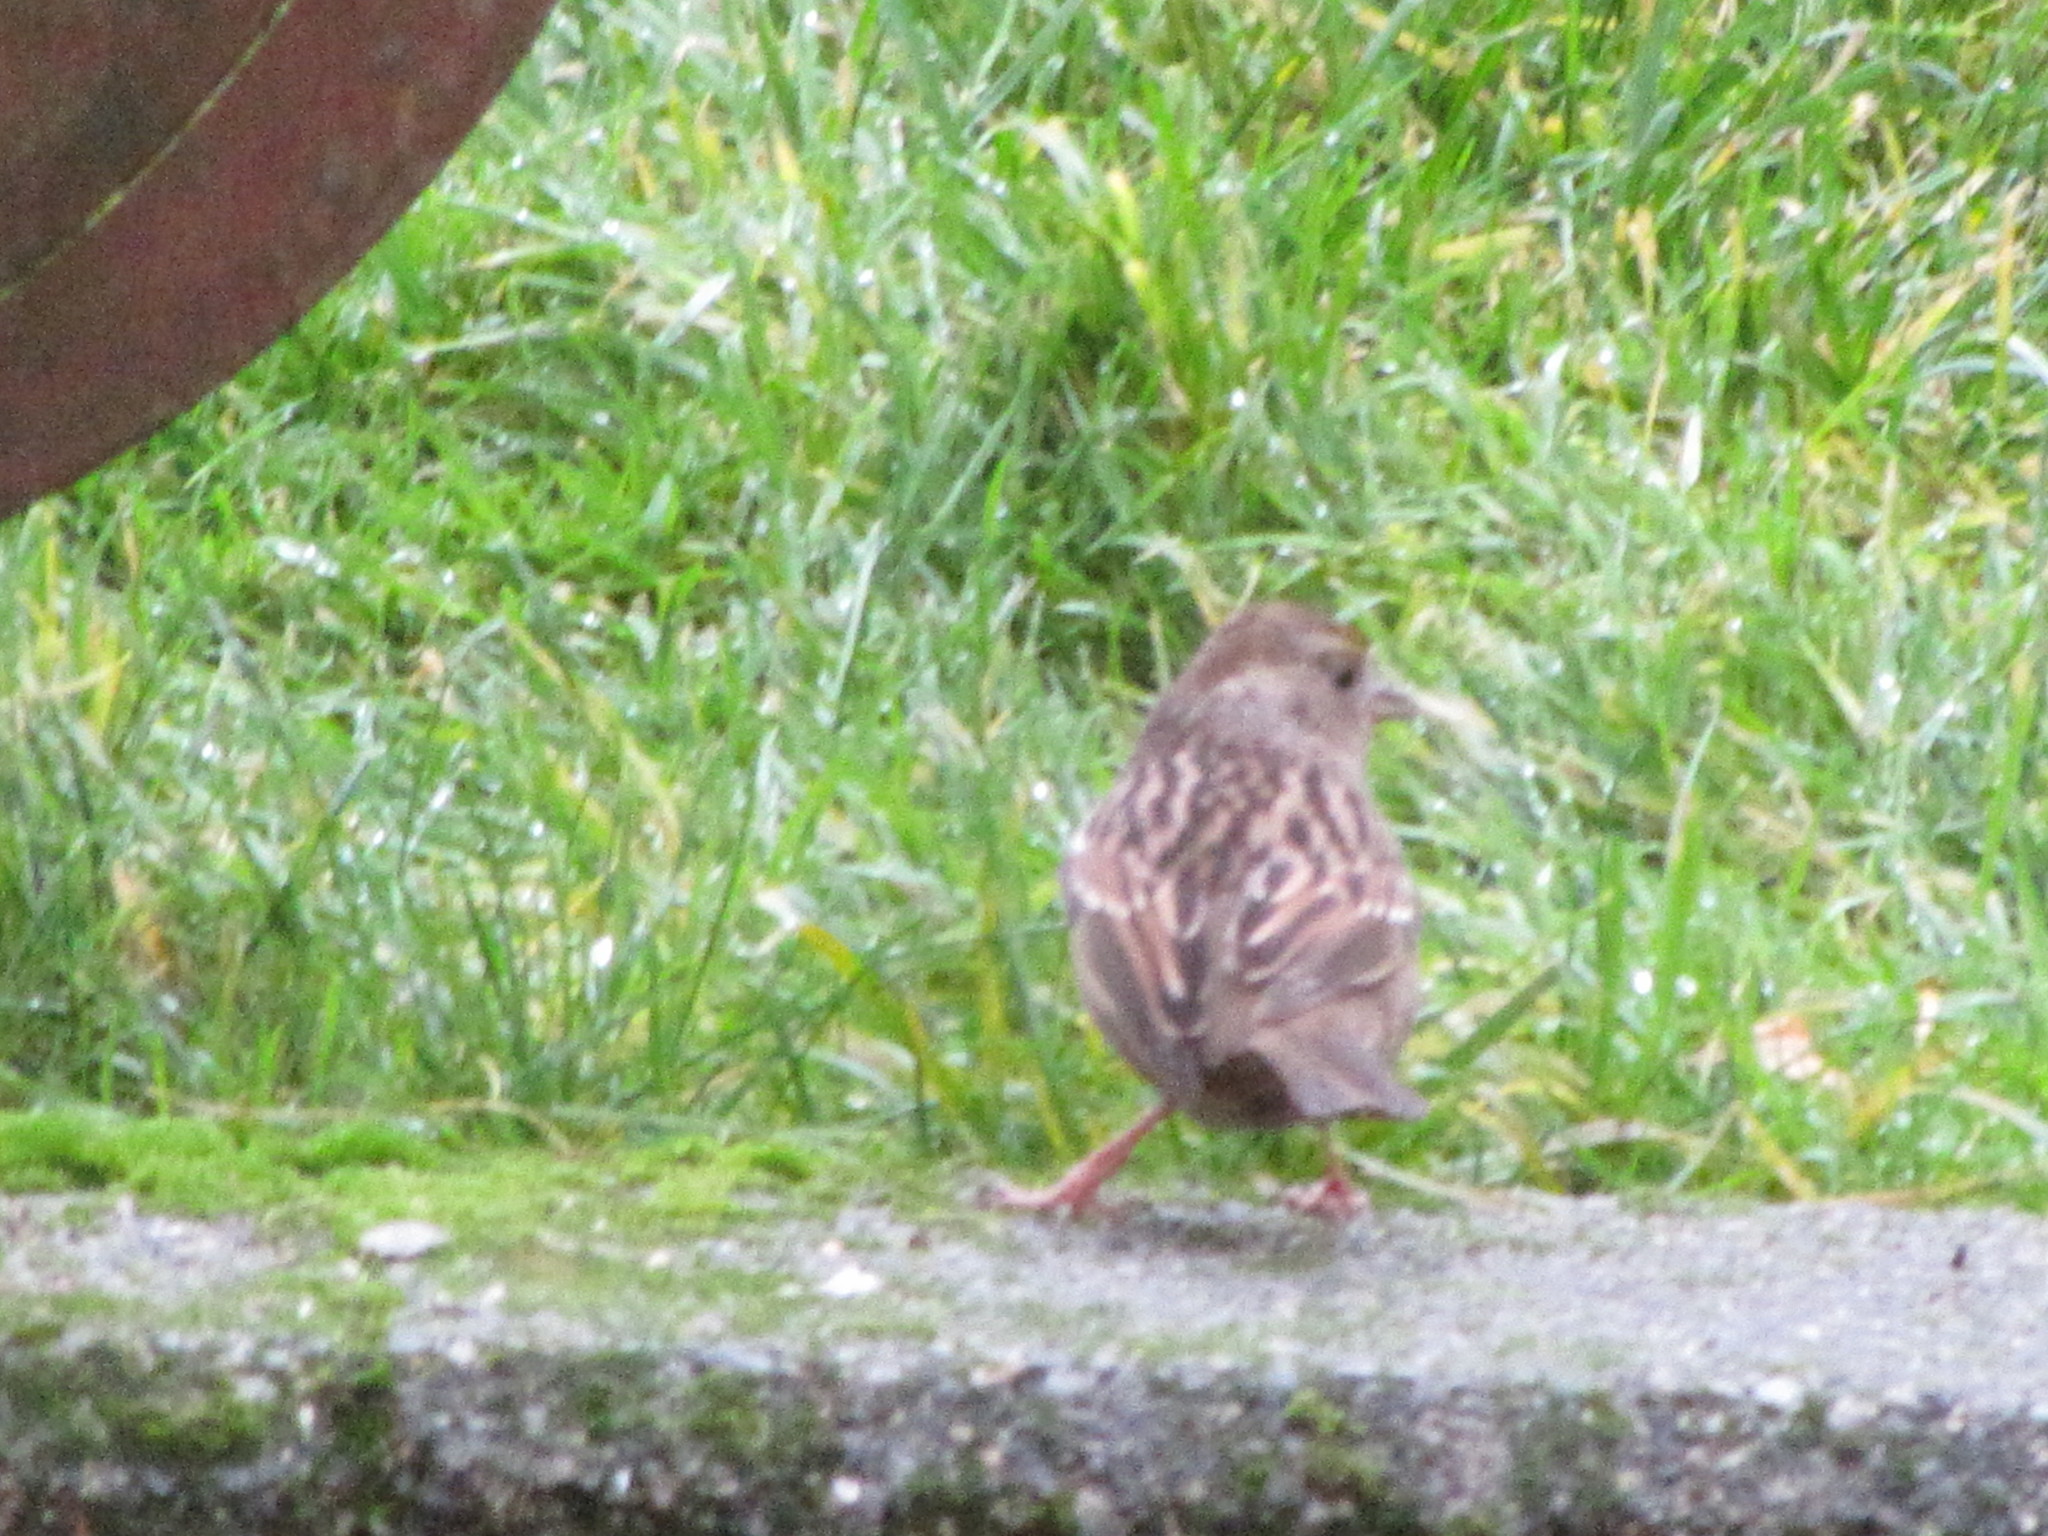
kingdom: Animalia
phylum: Chordata
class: Aves
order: Passeriformes
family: Passerellidae
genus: Zonotrichia
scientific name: Zonotrichia atricapilla
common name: Golden-crowned sparrow
